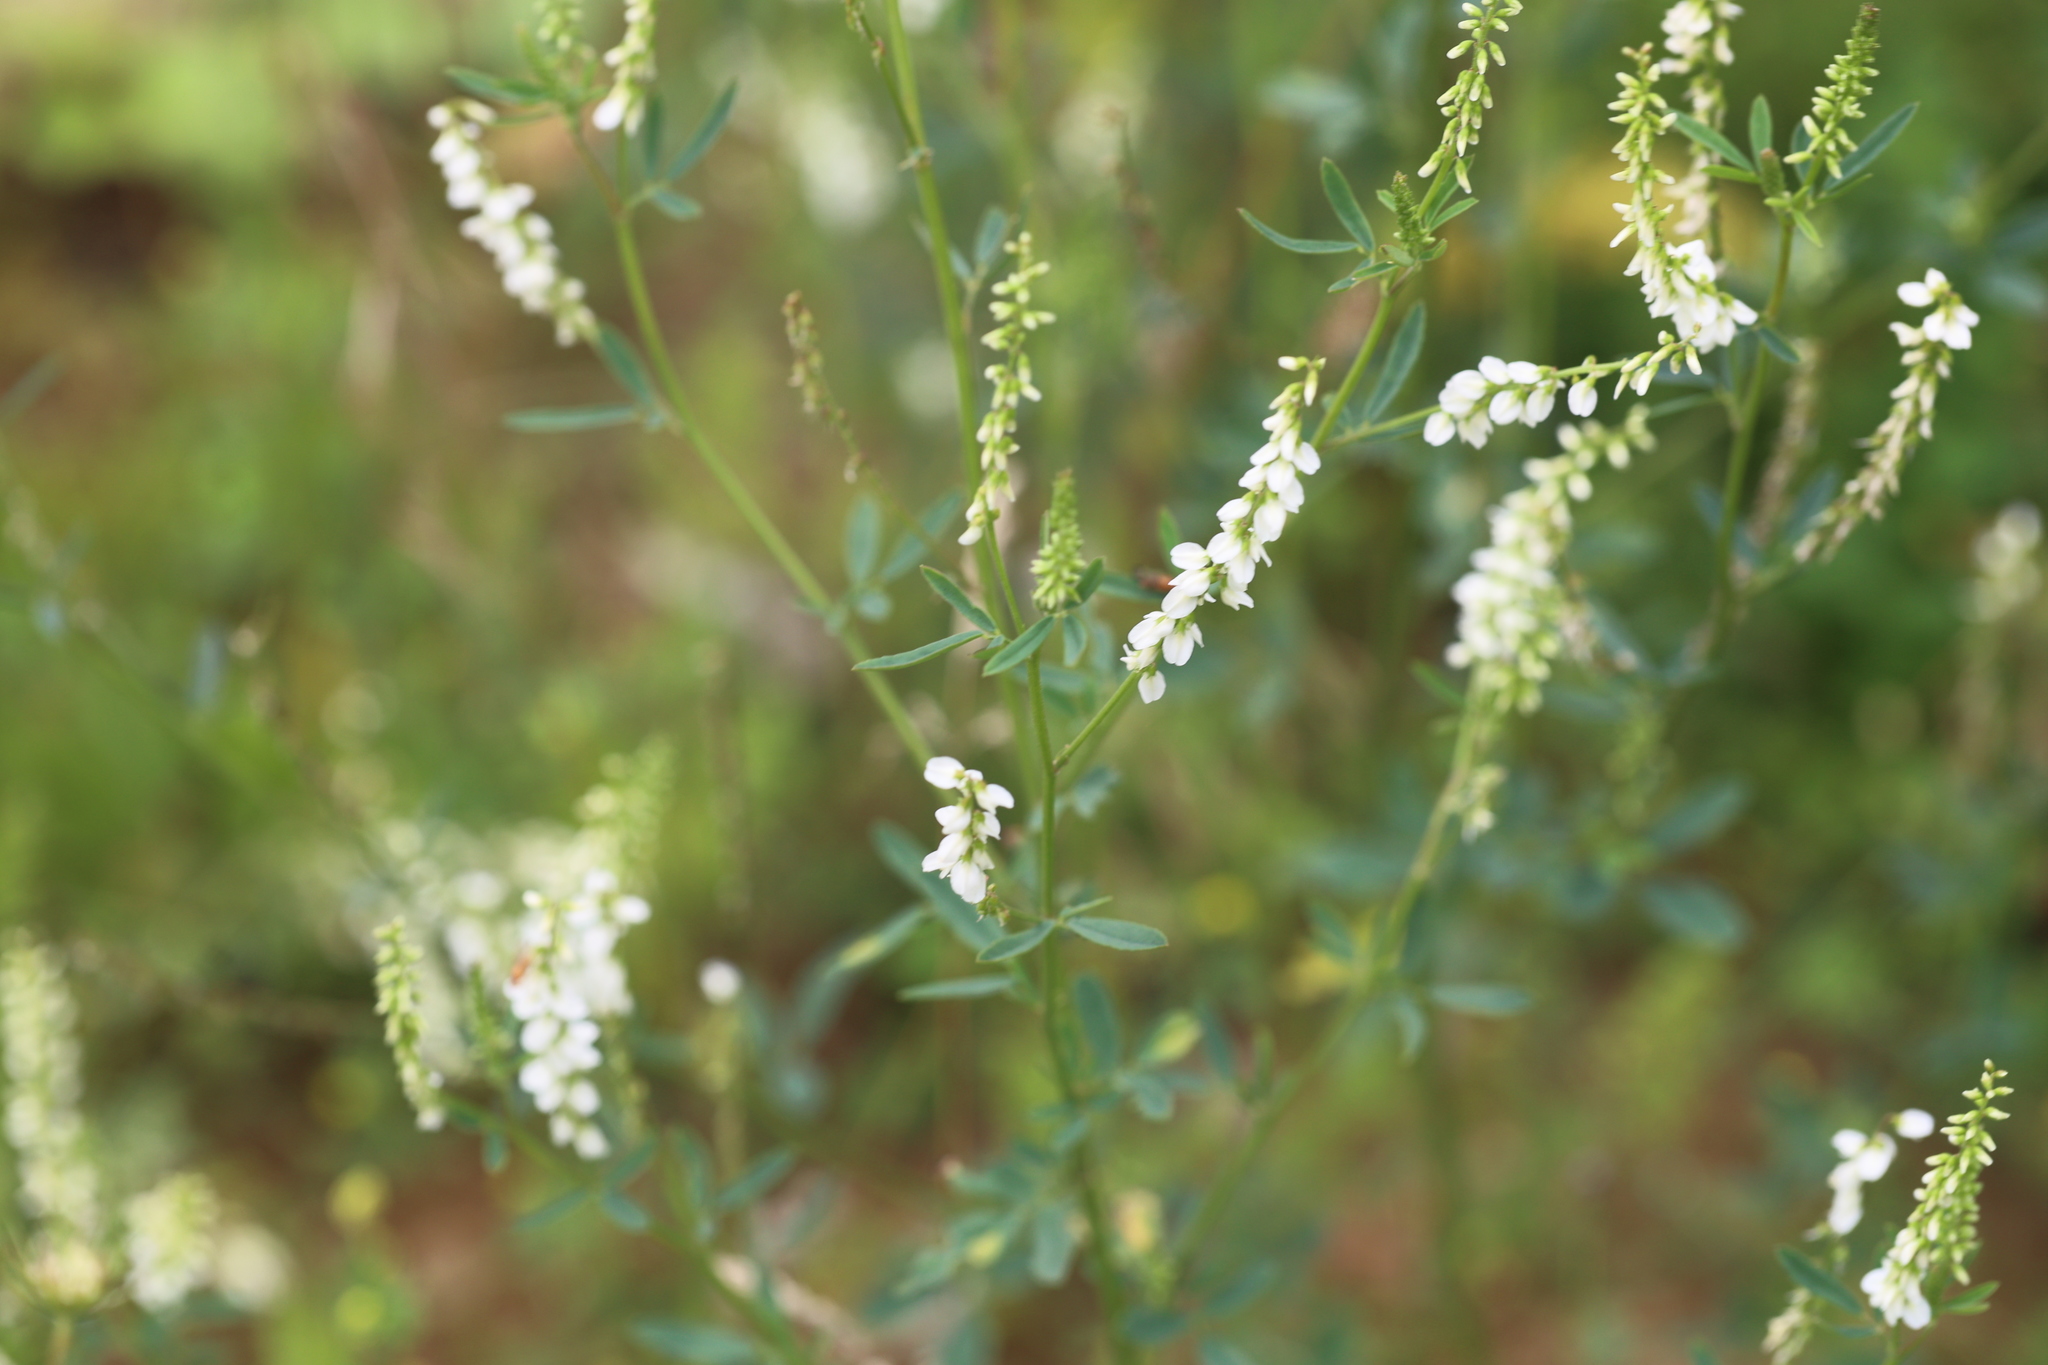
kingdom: Plantae
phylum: Tracheophyta
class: Magnoliopsida
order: Fabales
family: Fabaceae
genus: Melilotus
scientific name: Melilotus albus
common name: White melilot
